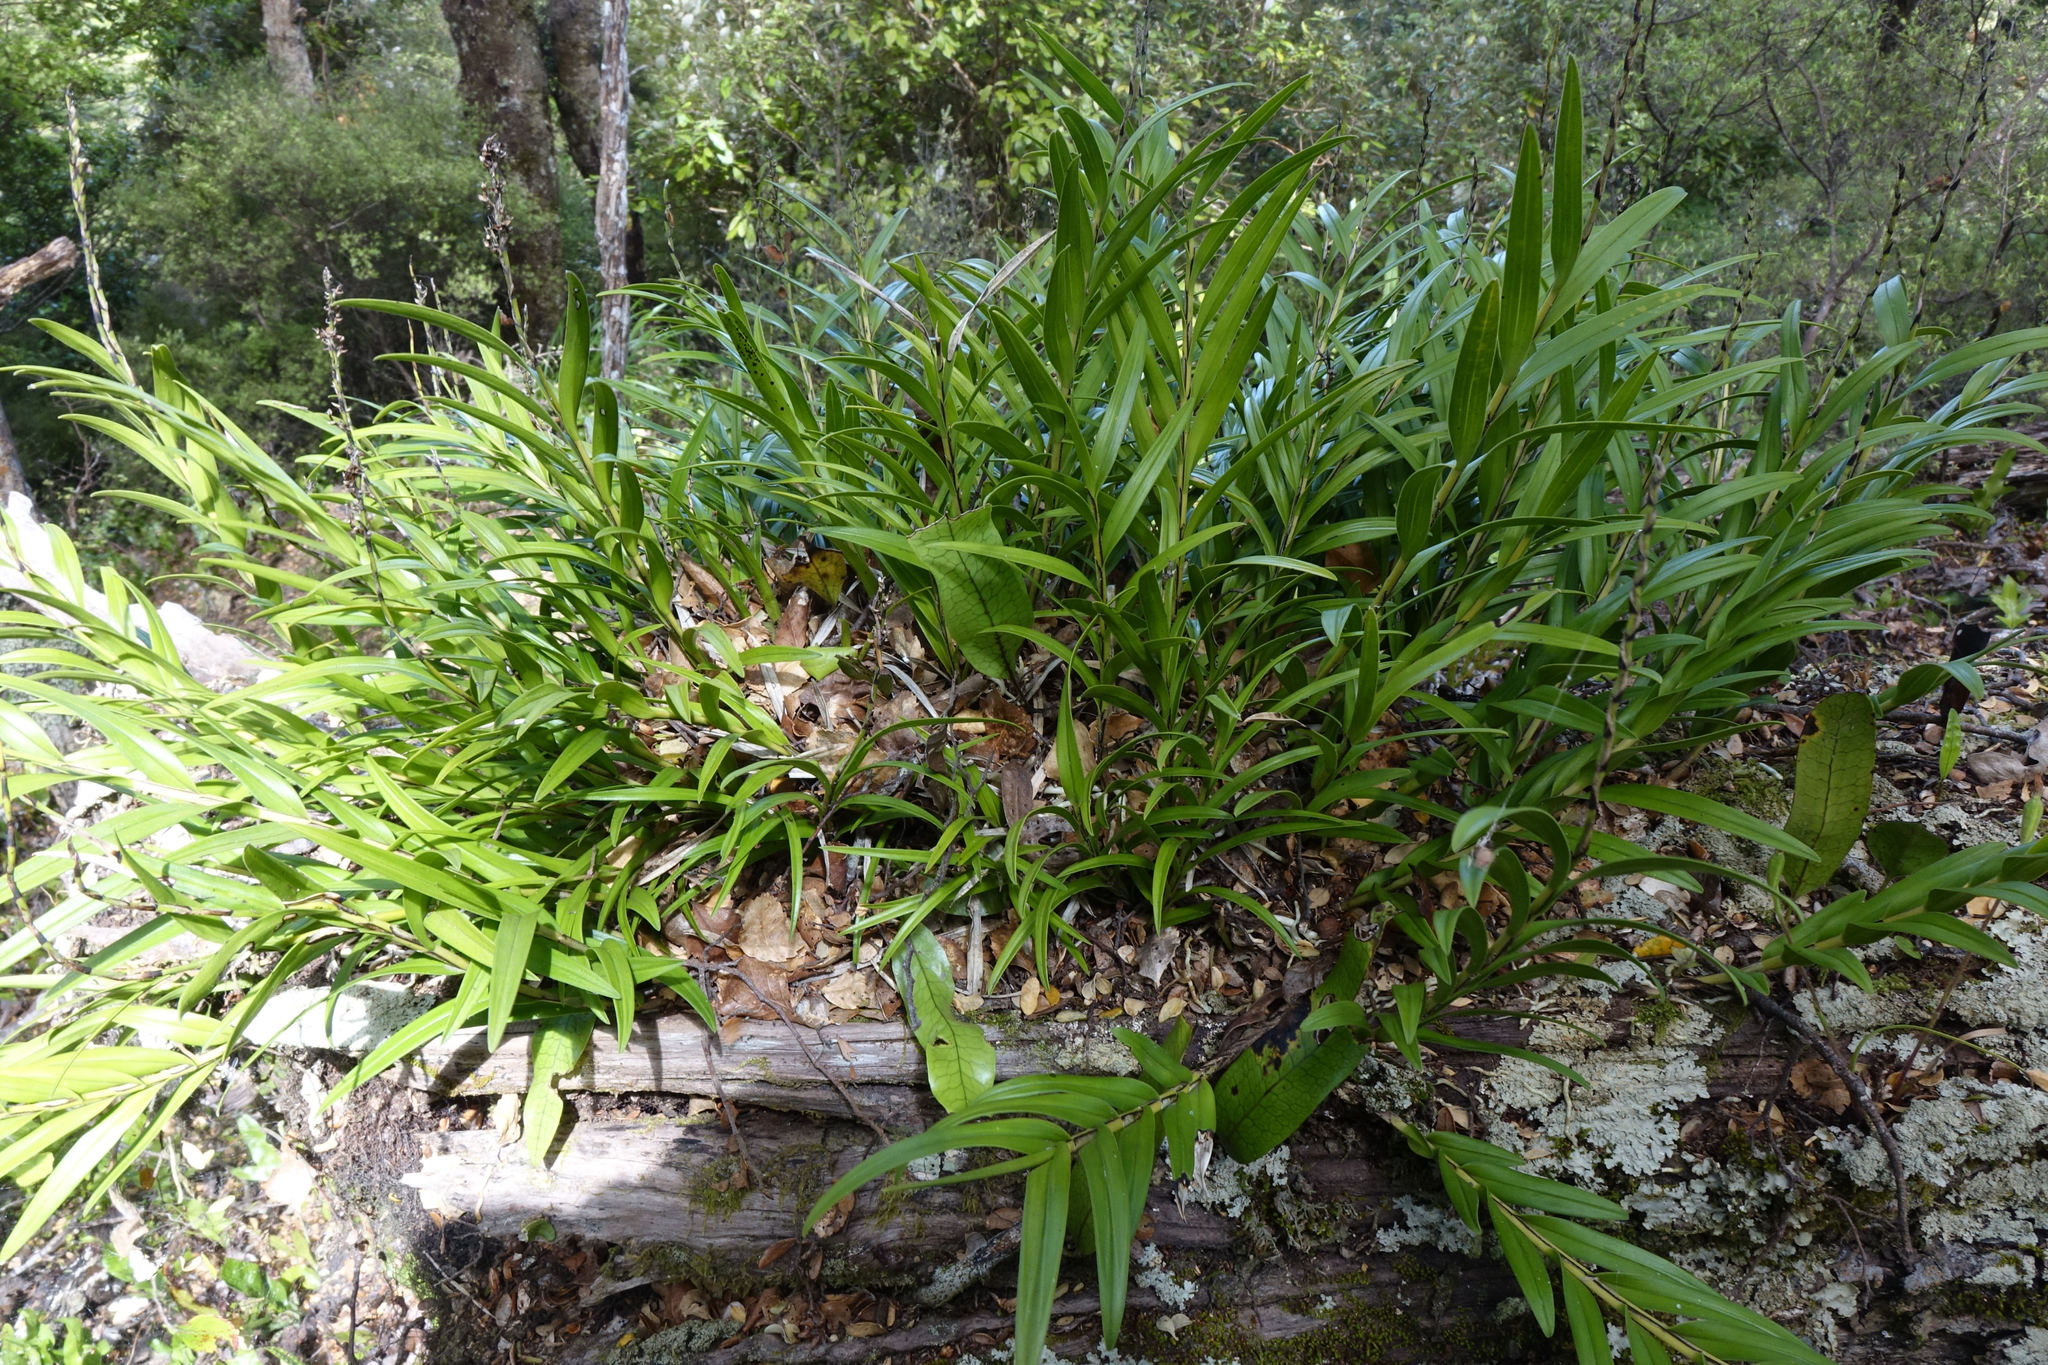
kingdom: Plantae
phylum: Tracheophyta
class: Liliopsida
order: Asparagales
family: Orchidaceae
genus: Earina
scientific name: Earina autumnalis
